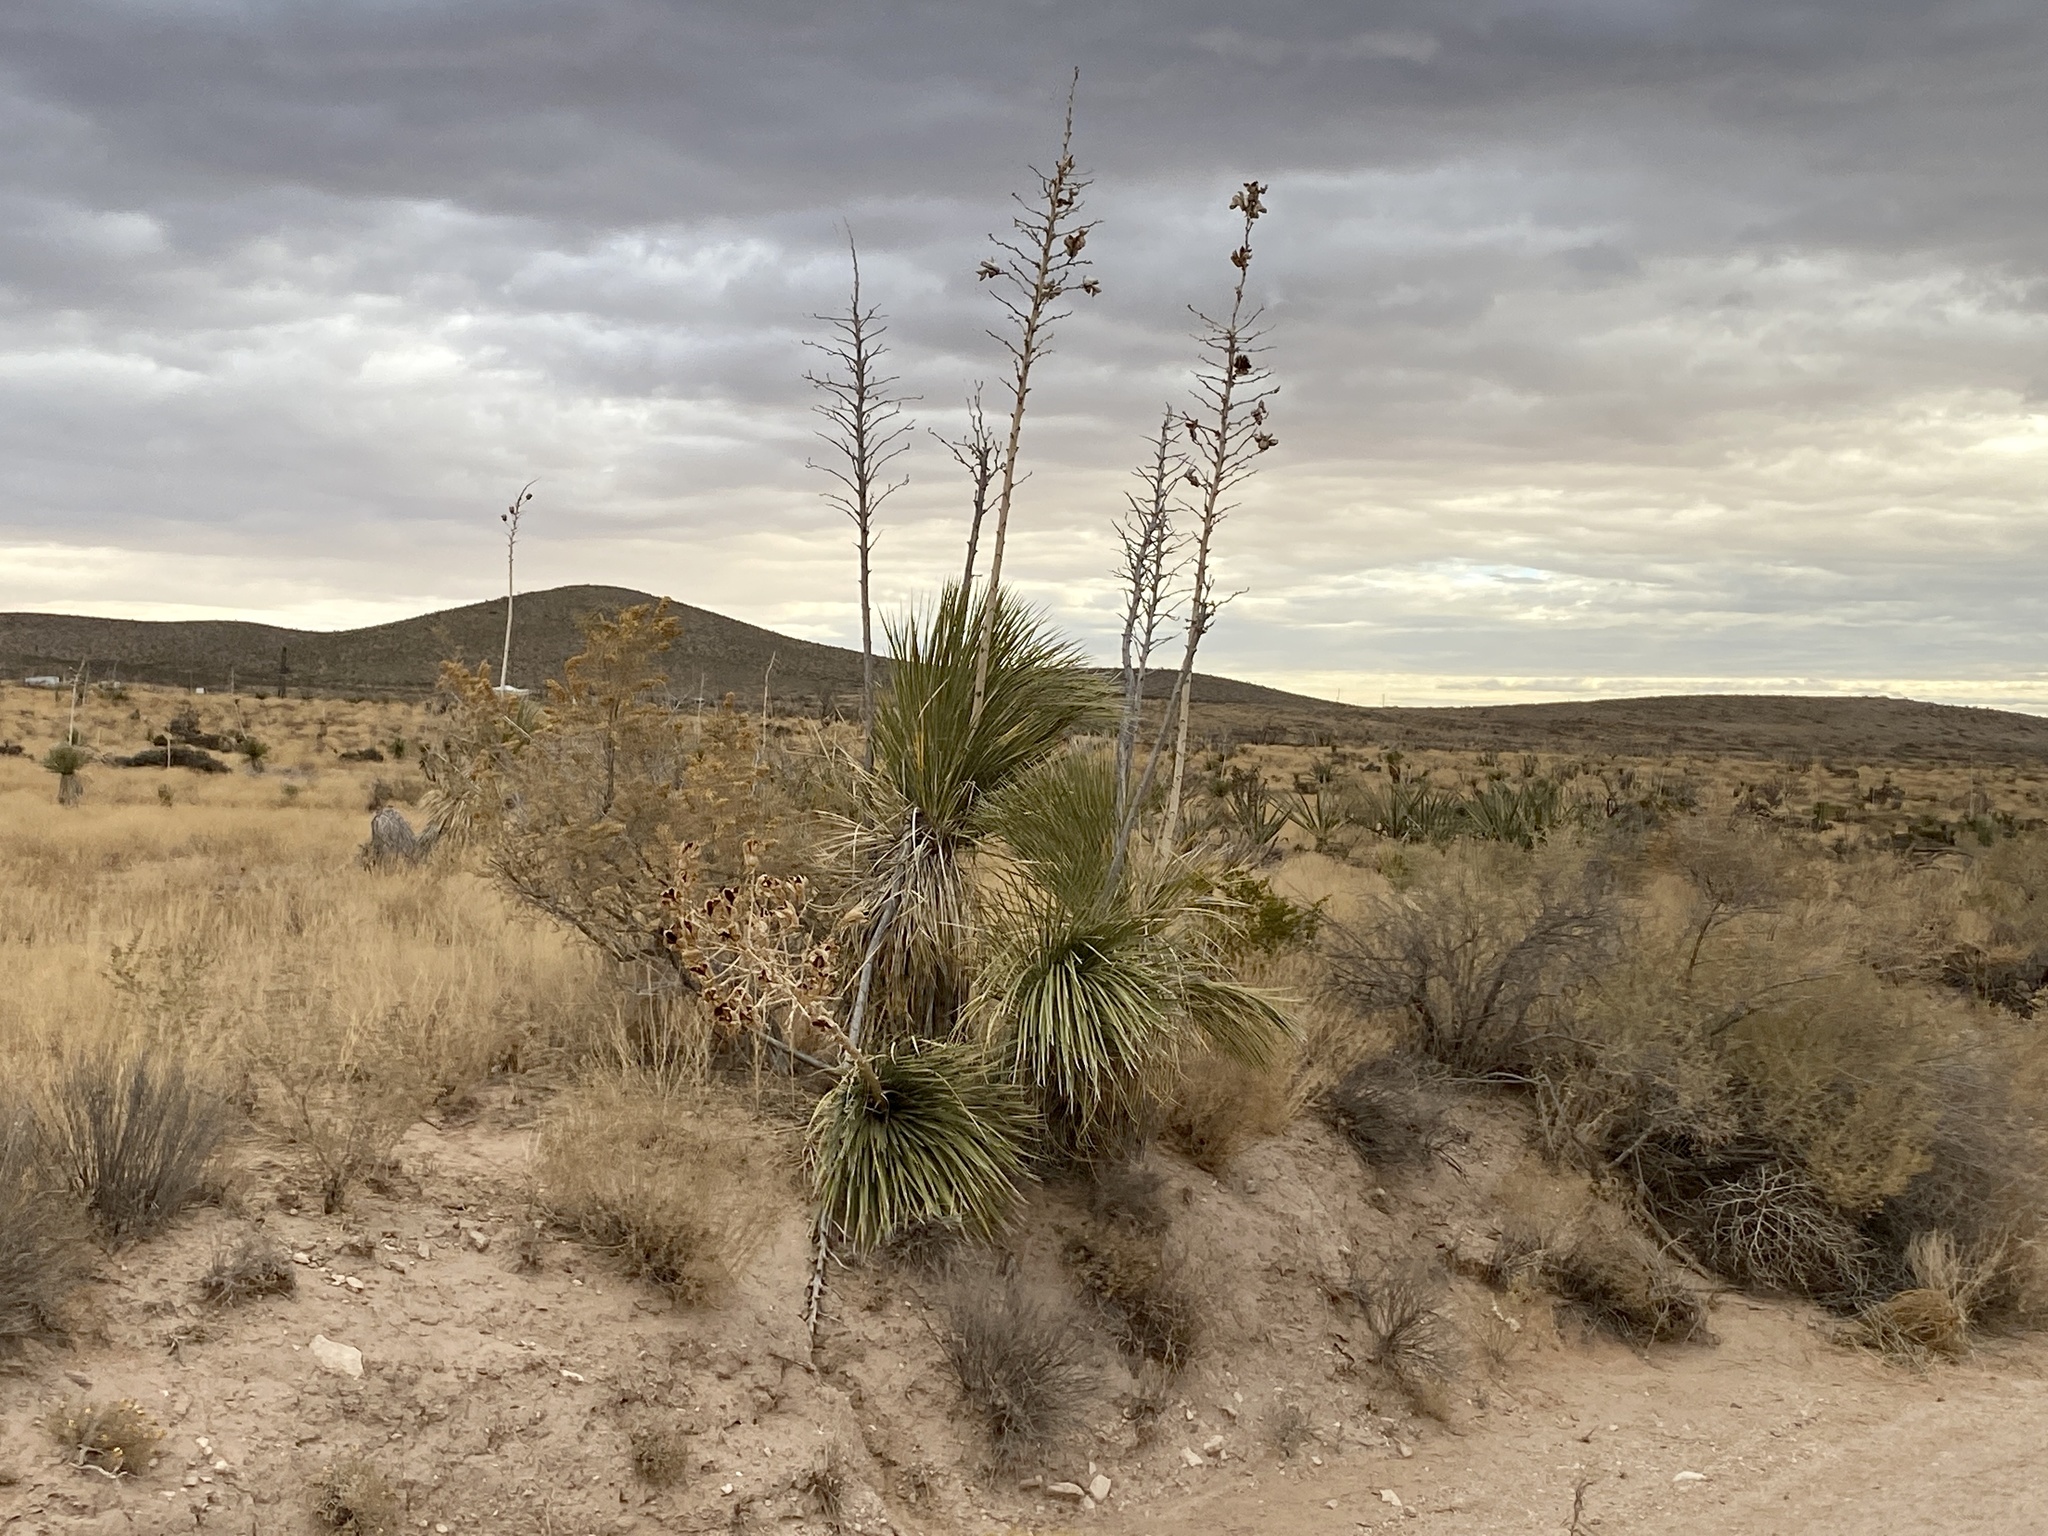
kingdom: Plantae
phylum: Tracheophyta
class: Liliopsida
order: Asparagales
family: Asparagaceae
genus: Yucca
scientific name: Yucca elata
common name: Palmella
